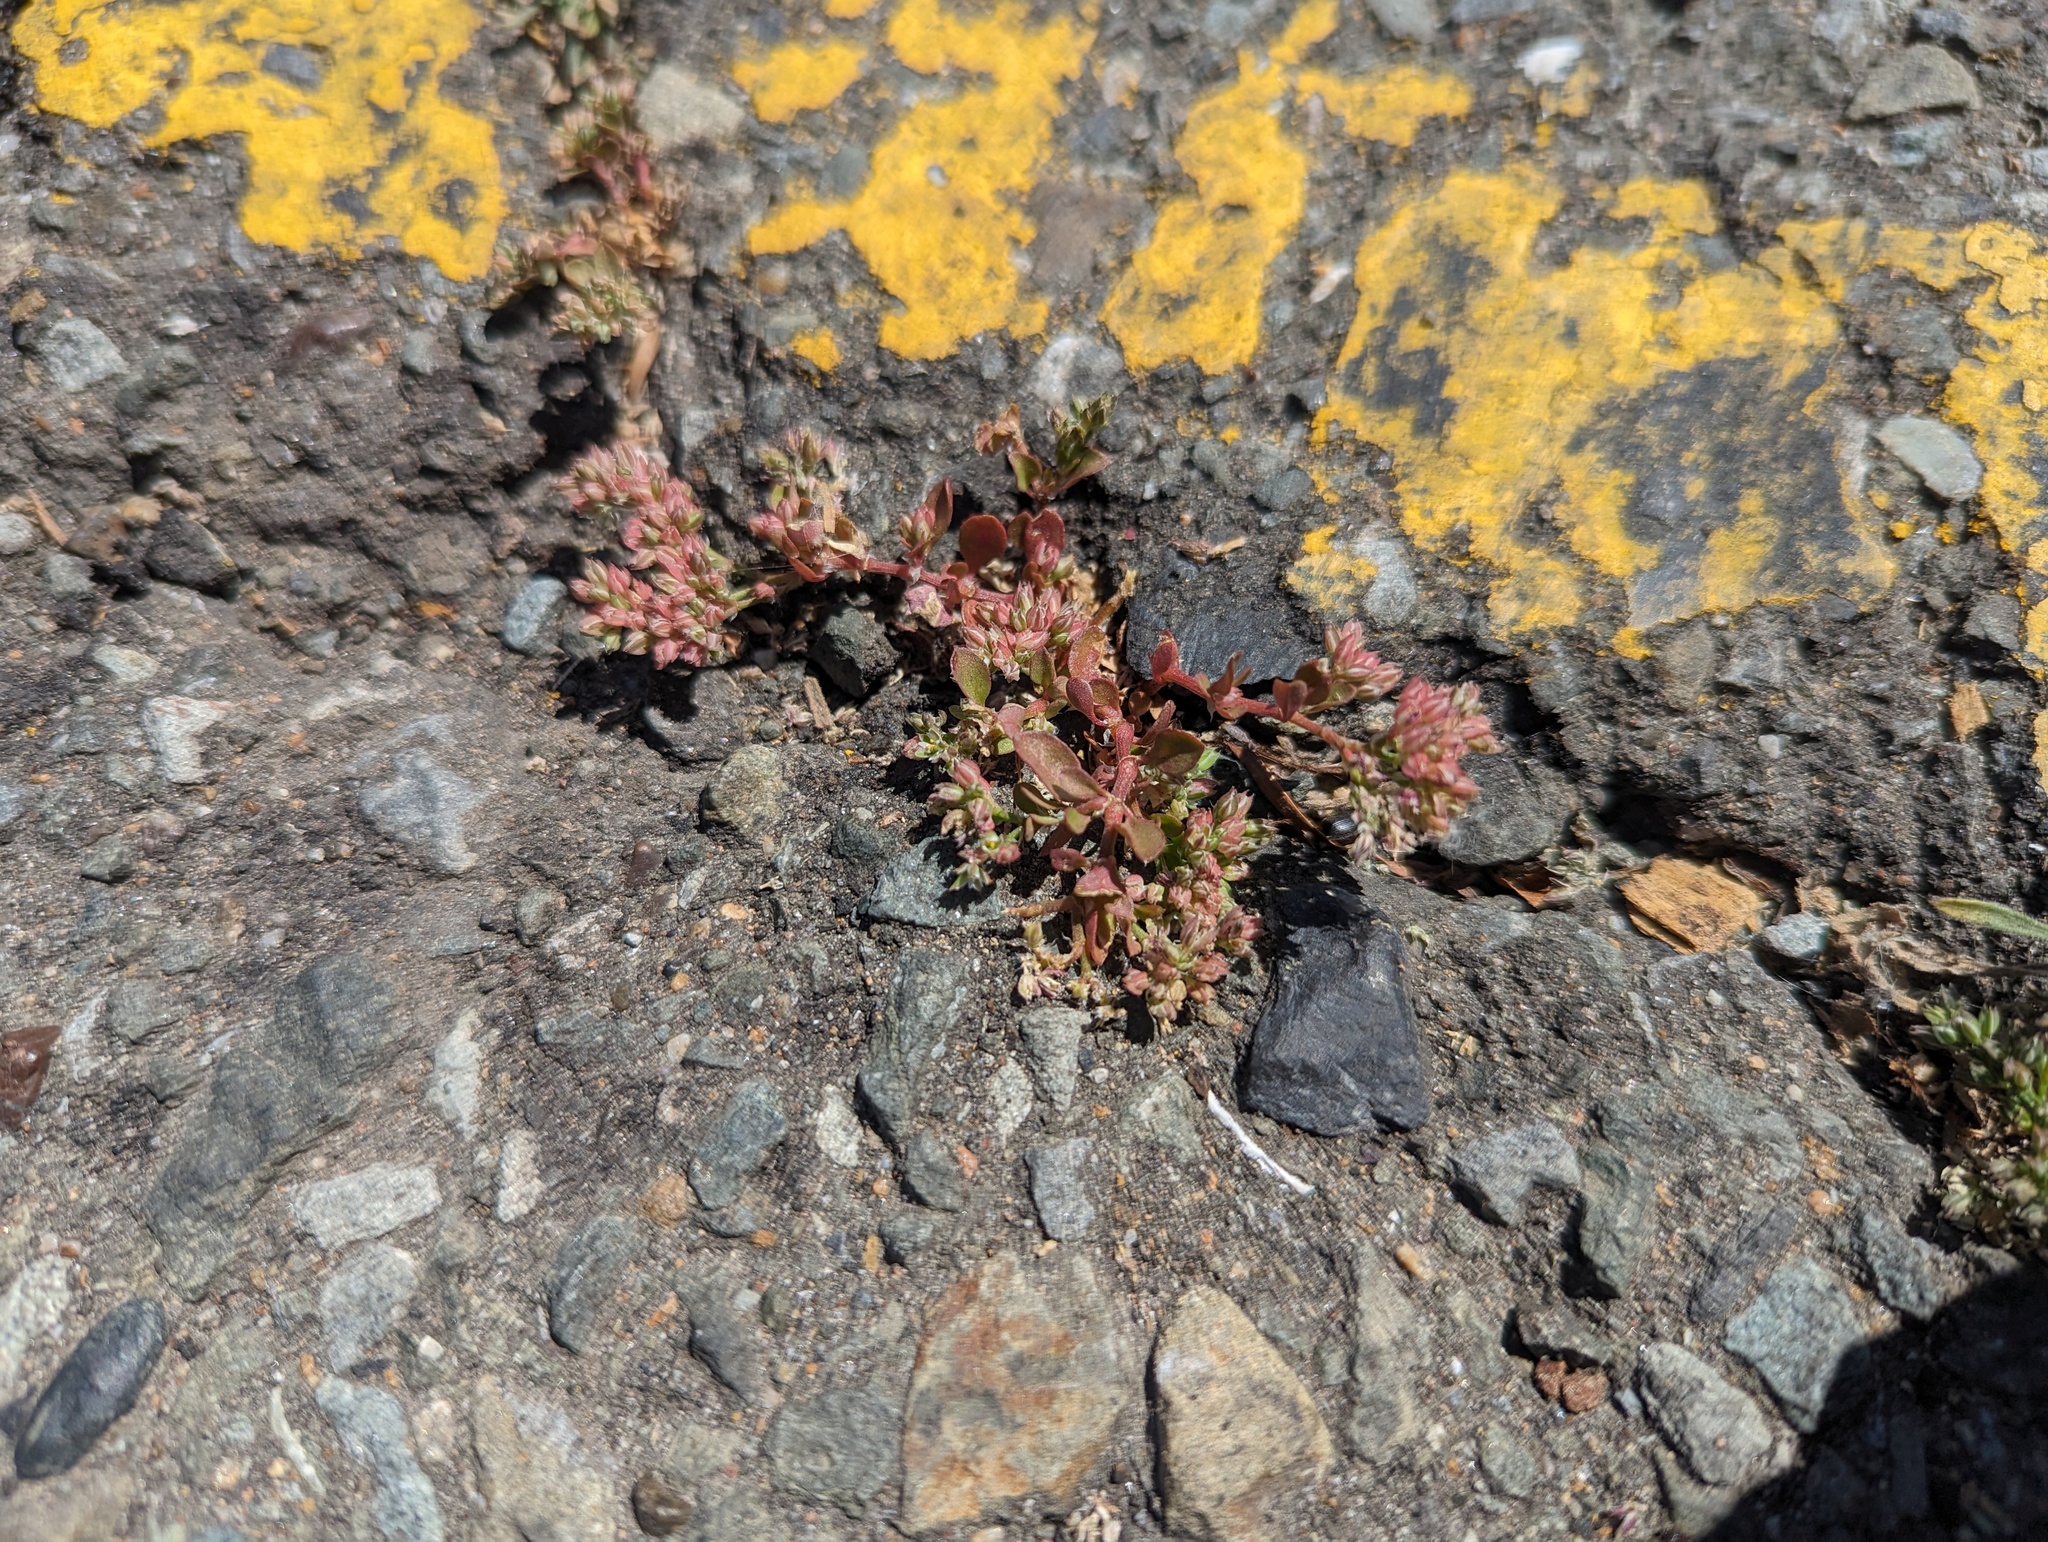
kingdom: Plantae
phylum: Tracheophyta
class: Magnoliopsida
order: Caryophyllales
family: Caryophyllaceae
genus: Polycarpon
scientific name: Polycarpon tetraphyllum
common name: Four-leaved all-seed
